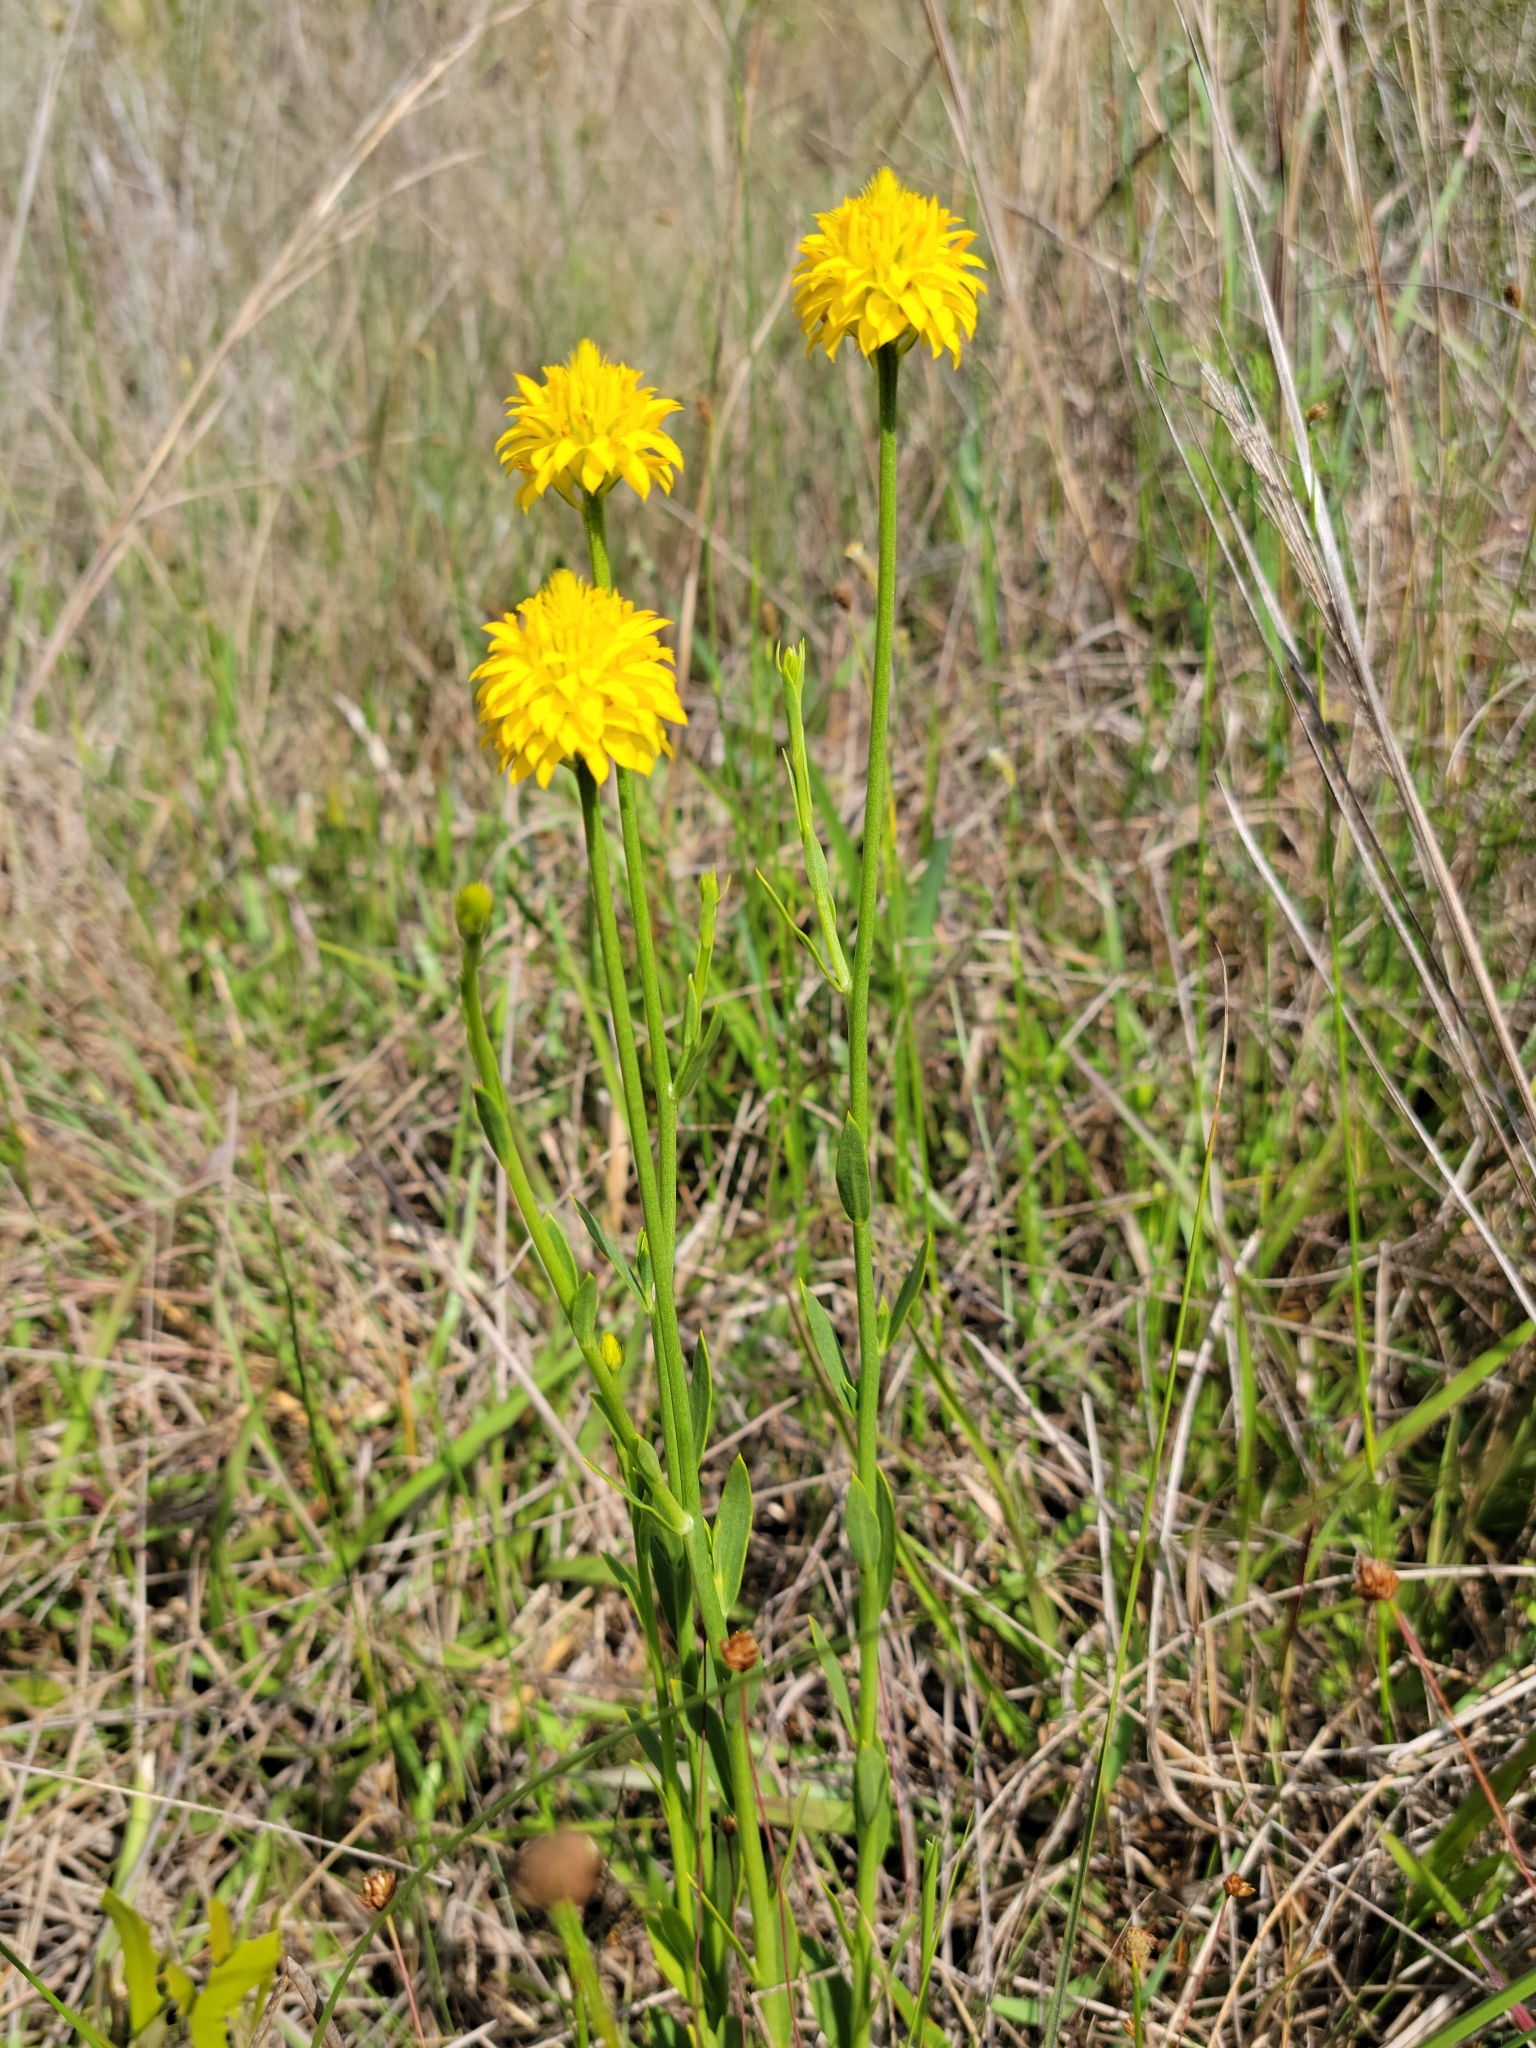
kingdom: Plantae
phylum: Tracheophyta
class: Magnoliopsida
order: Fabales
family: Polygalaceae
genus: Polygala
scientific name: Polygala rugelii
